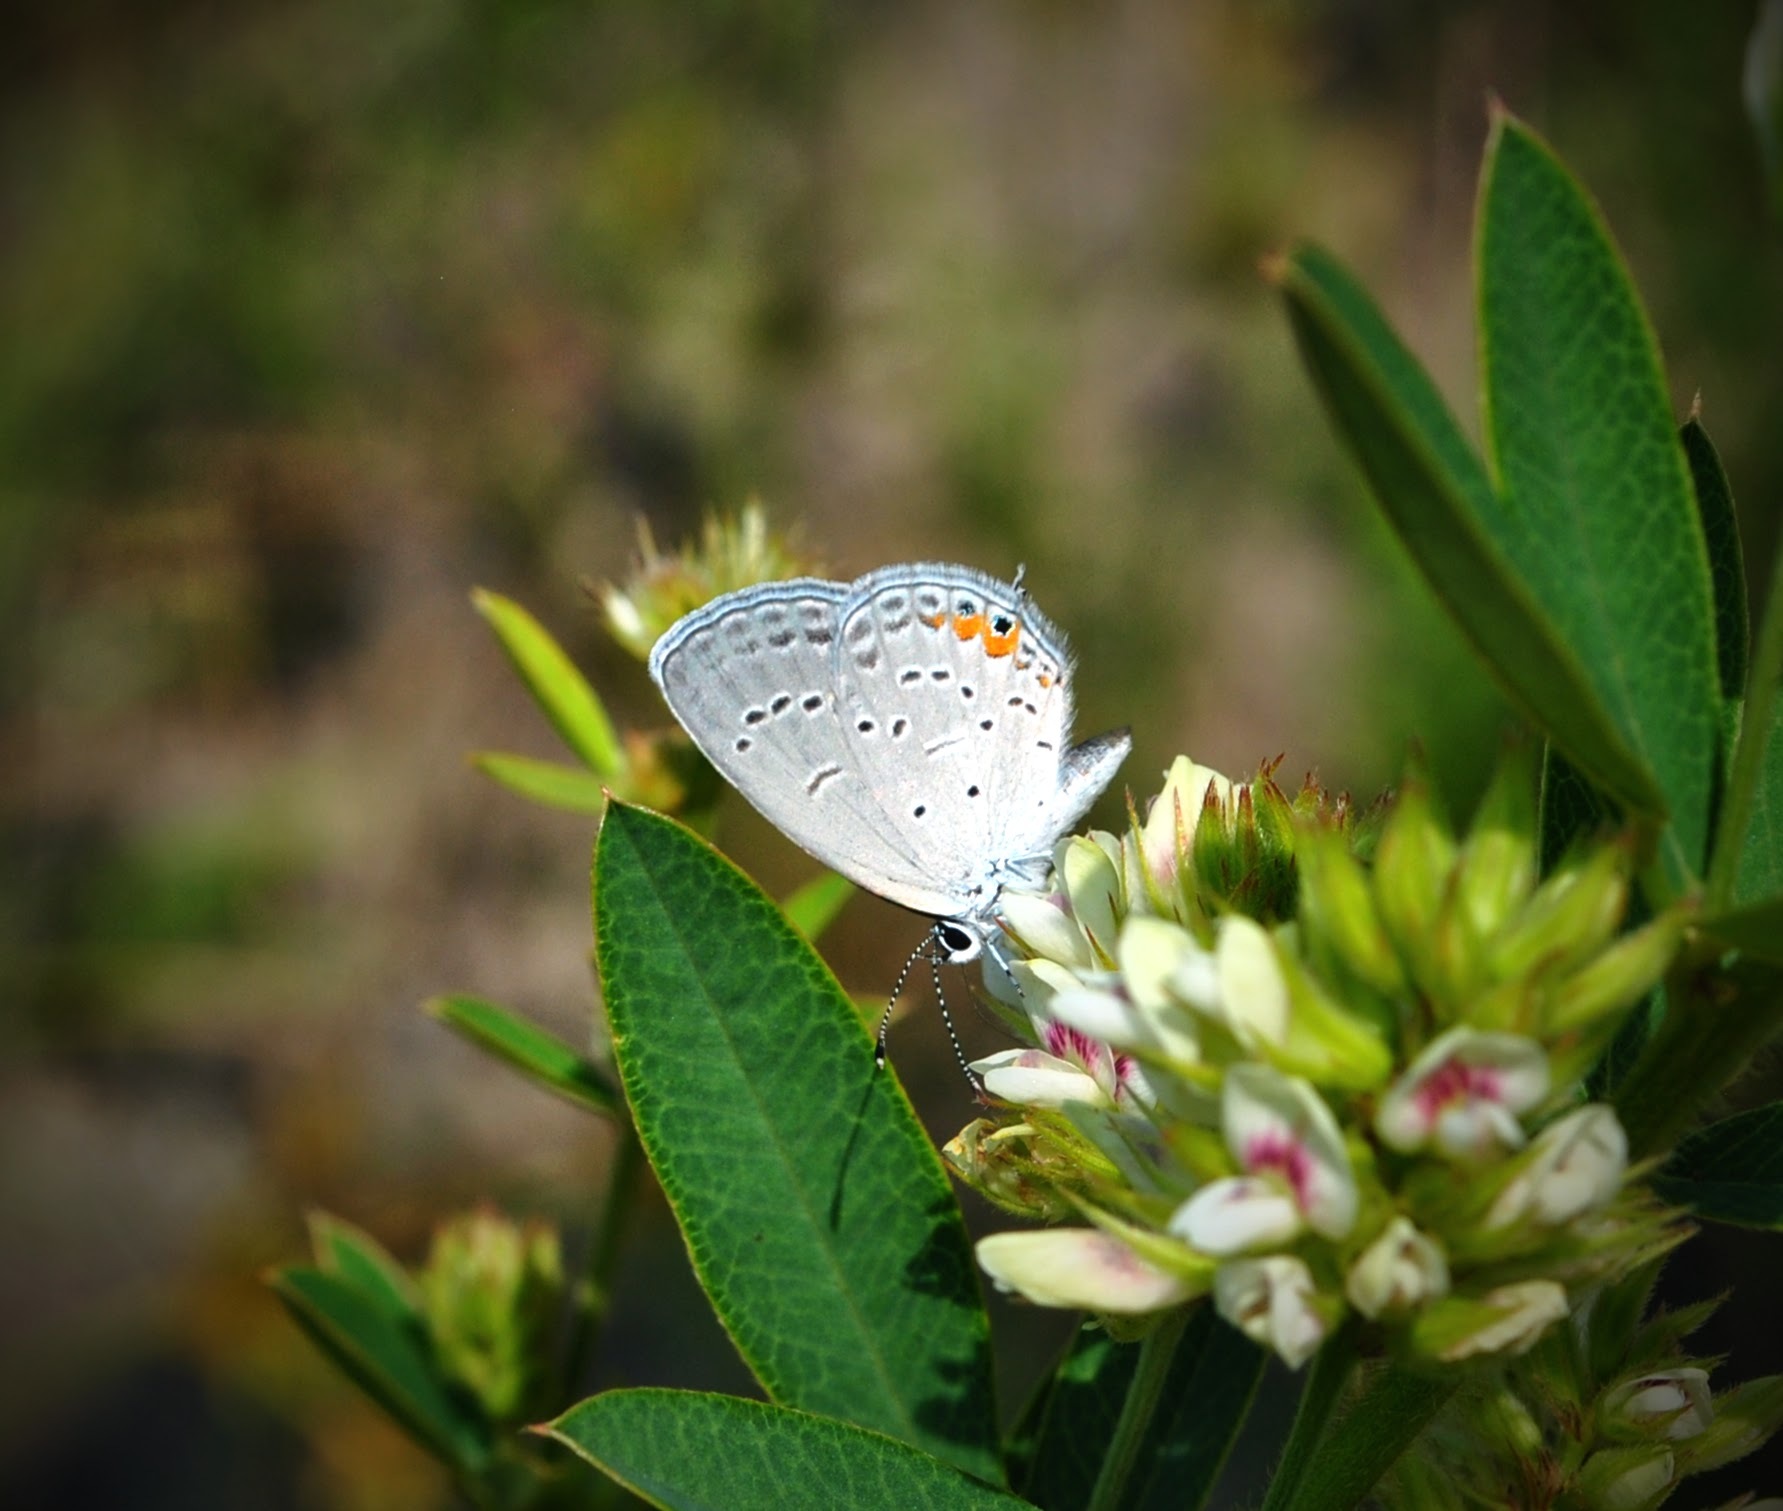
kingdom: Animalia
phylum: Arthropoda
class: Insecta
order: Lepidoptera
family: Lycaenidae
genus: Elkalyce
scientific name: Elkalyce comyntas
